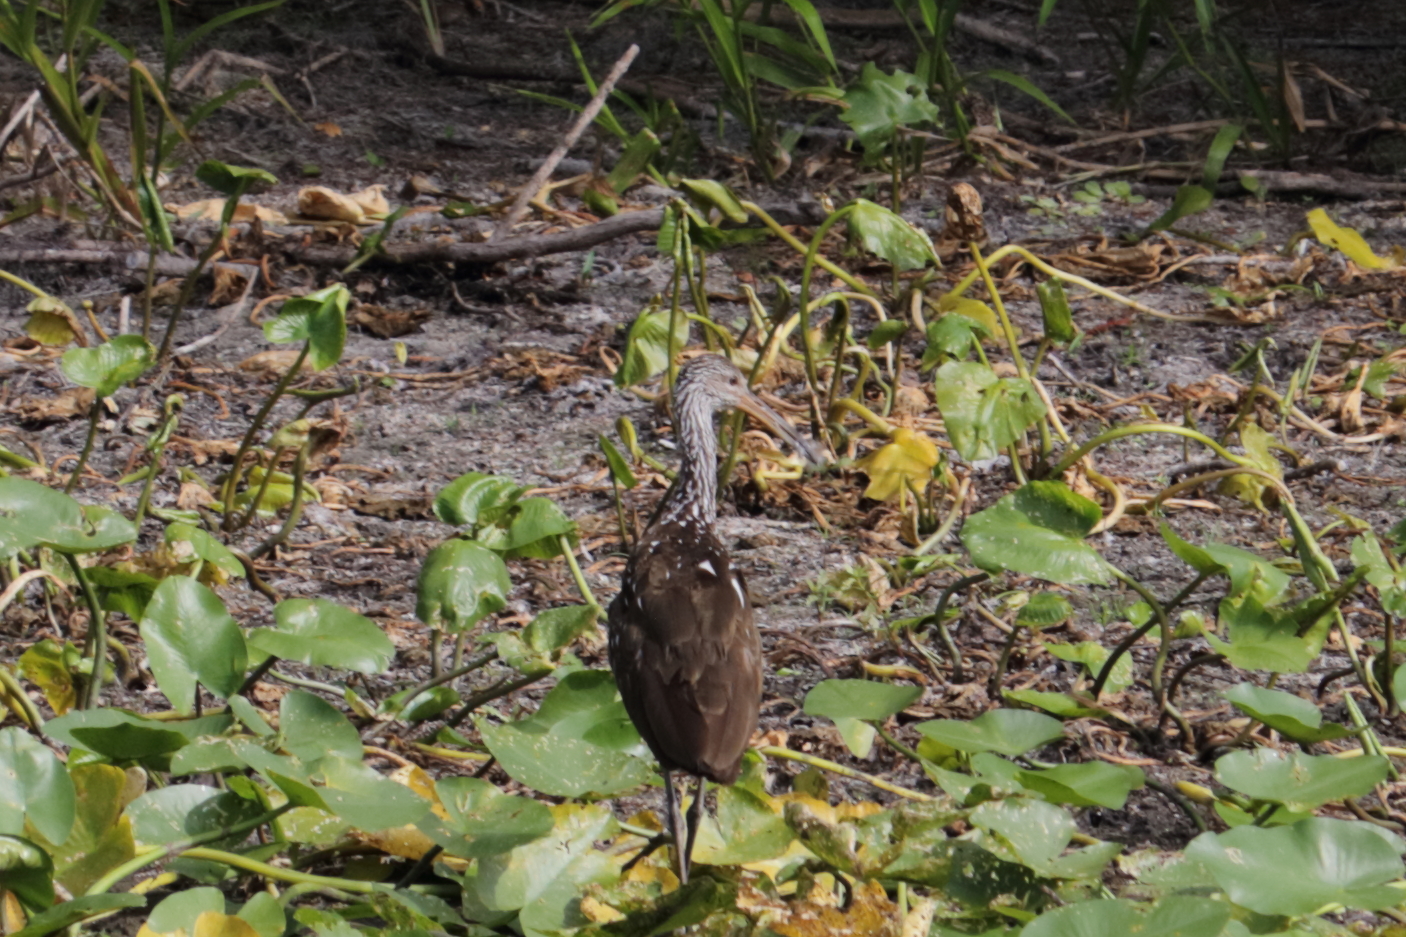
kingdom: Animalia
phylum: Chordata
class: Aves
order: Gruiformes
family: Aramidae
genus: Aramus
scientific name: Aramus guarauna
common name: Limpkin
